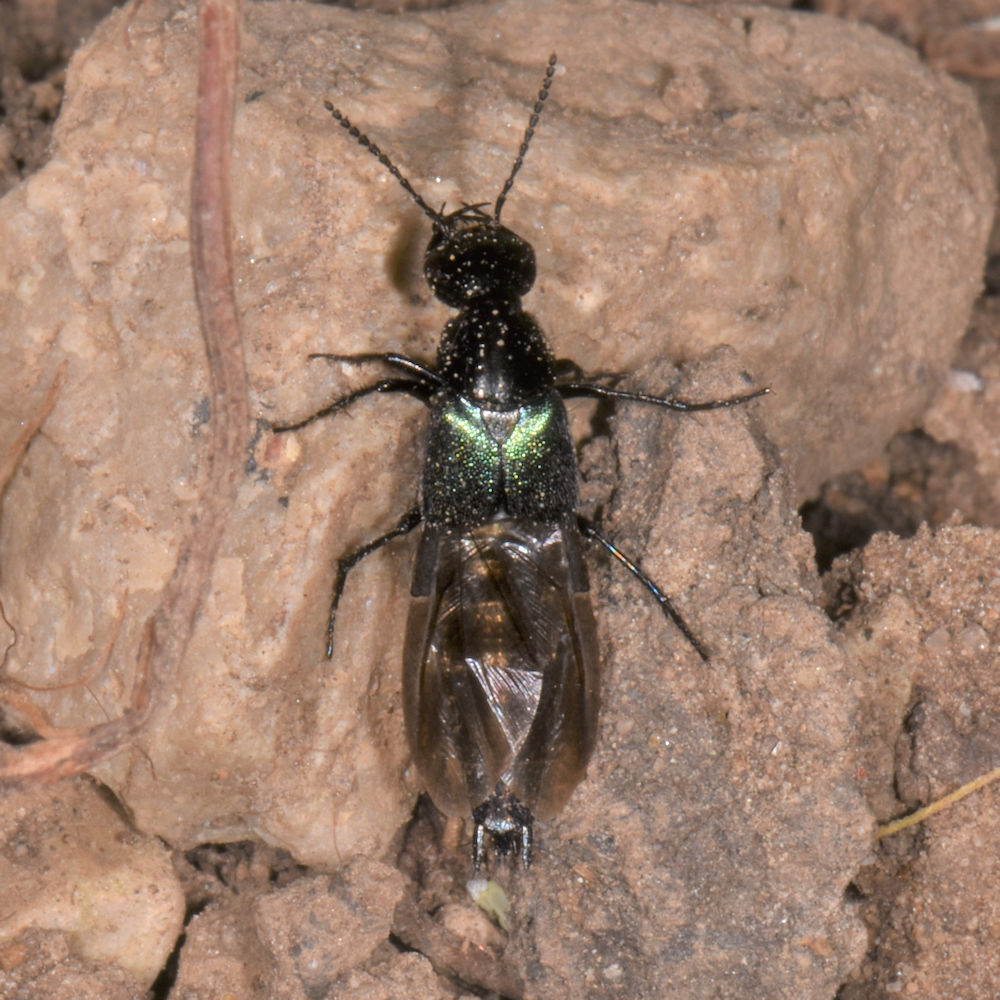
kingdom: Animalia
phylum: Arthropoda
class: Insecta
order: Coleoptera
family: Staphylinidae
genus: Philonthus
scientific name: Philonthus caeruleipennis
